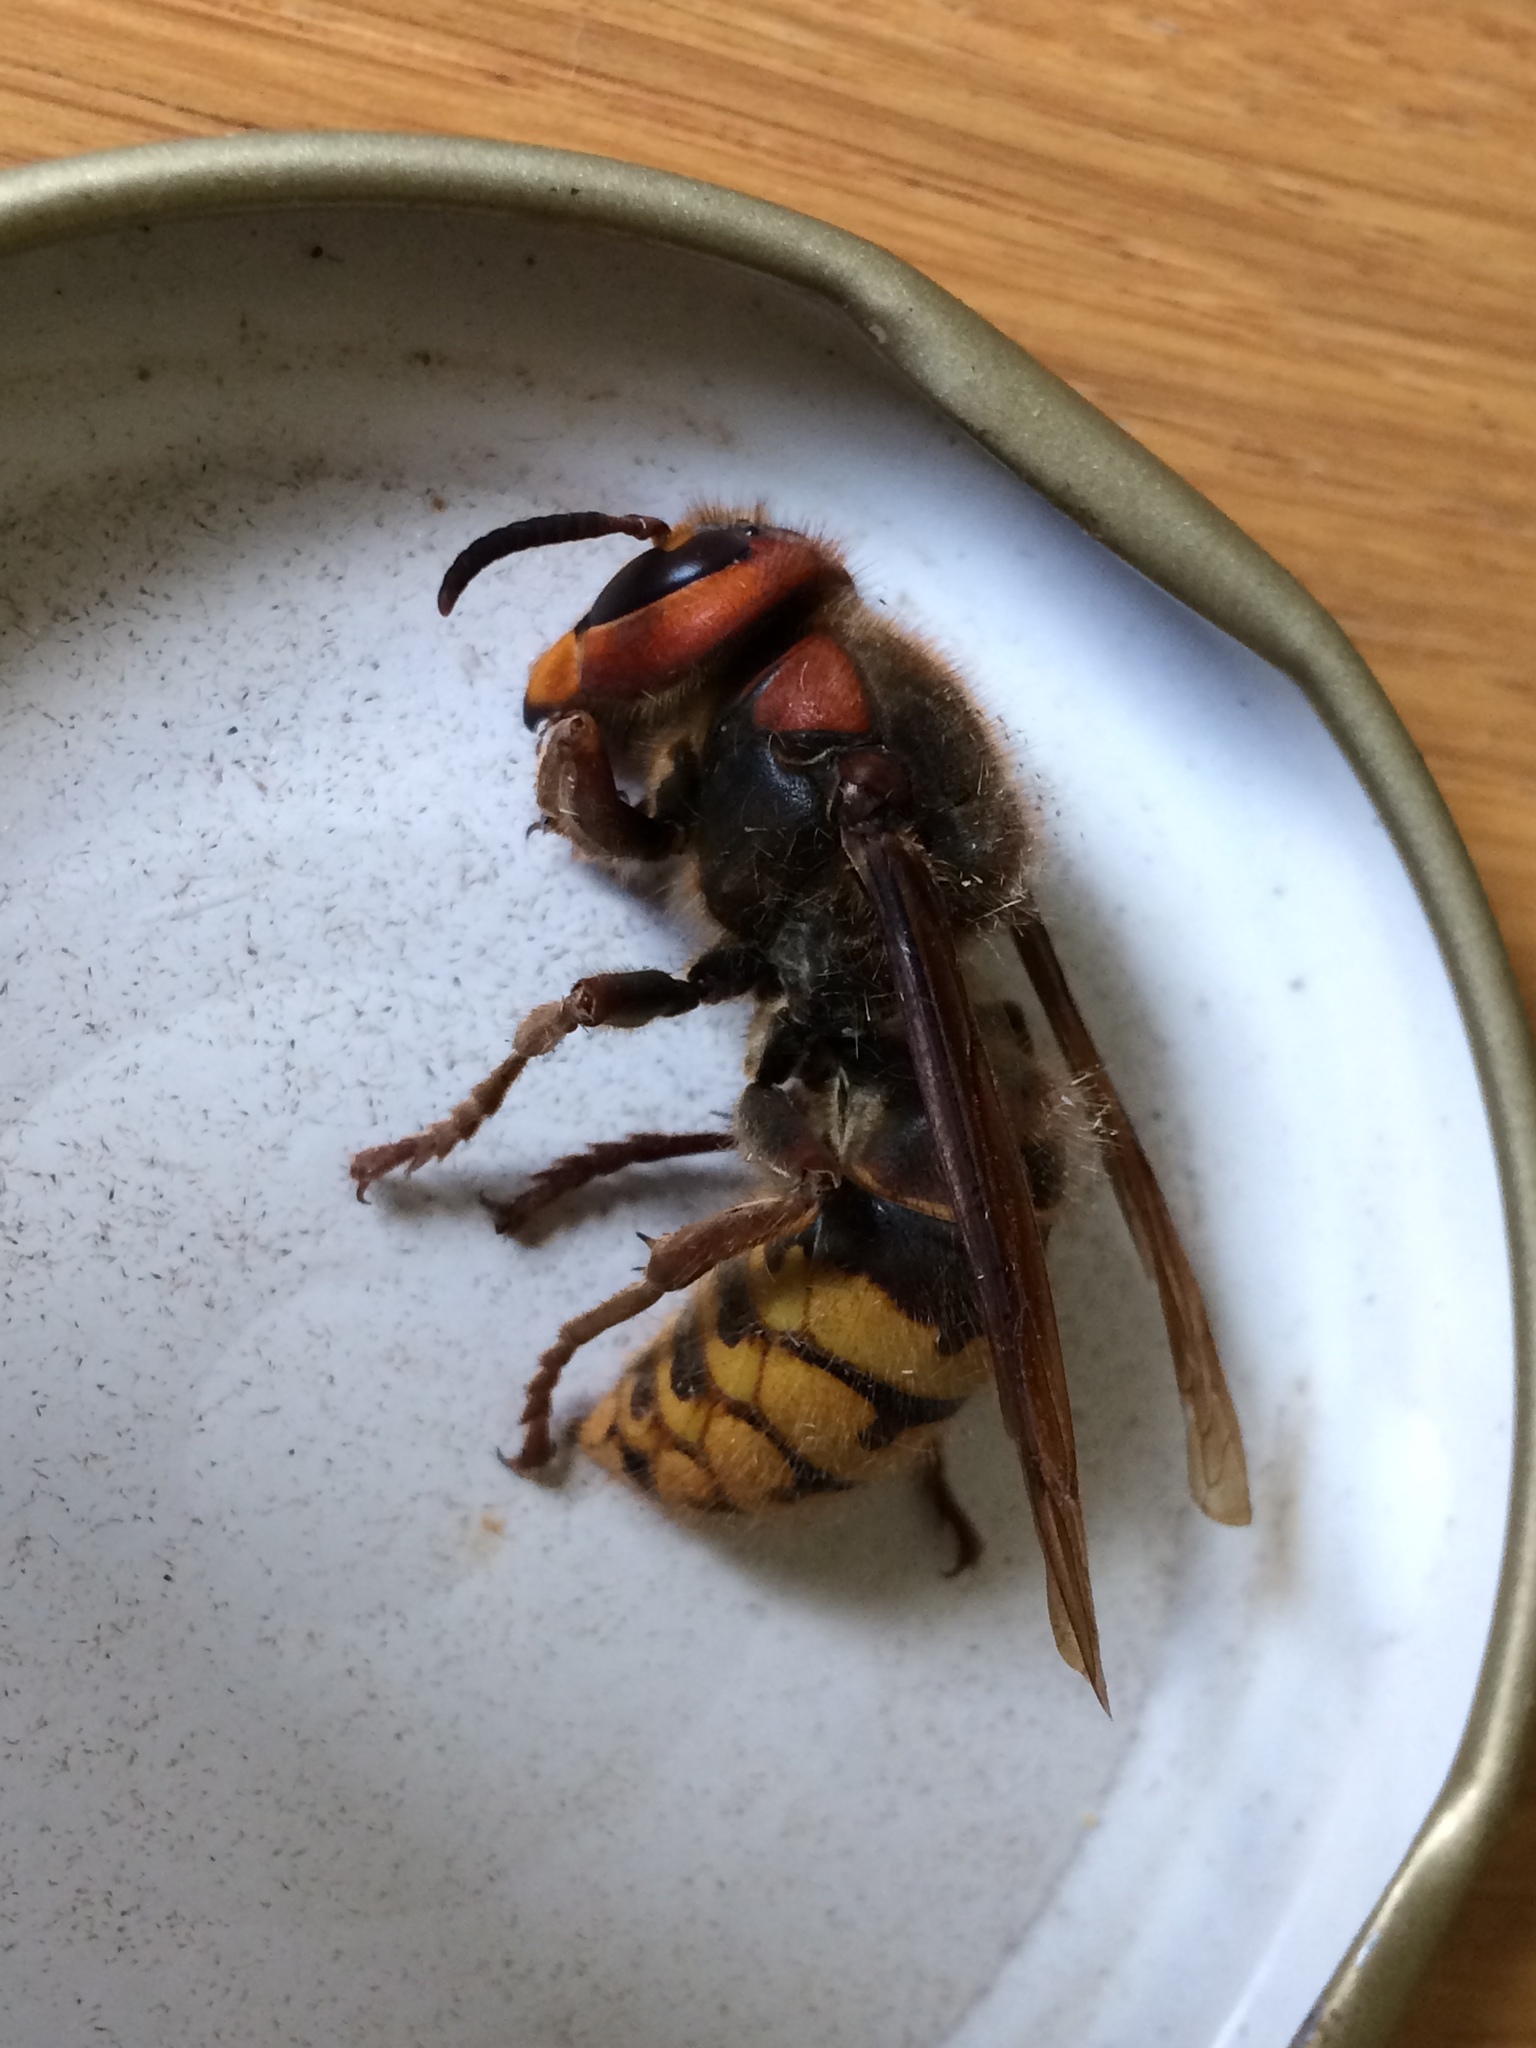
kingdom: Animalia
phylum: Arthropoda
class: Insecta
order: Hymenoptera
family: Vespidae
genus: Vespa
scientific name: Vespa crabro
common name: Hornet
